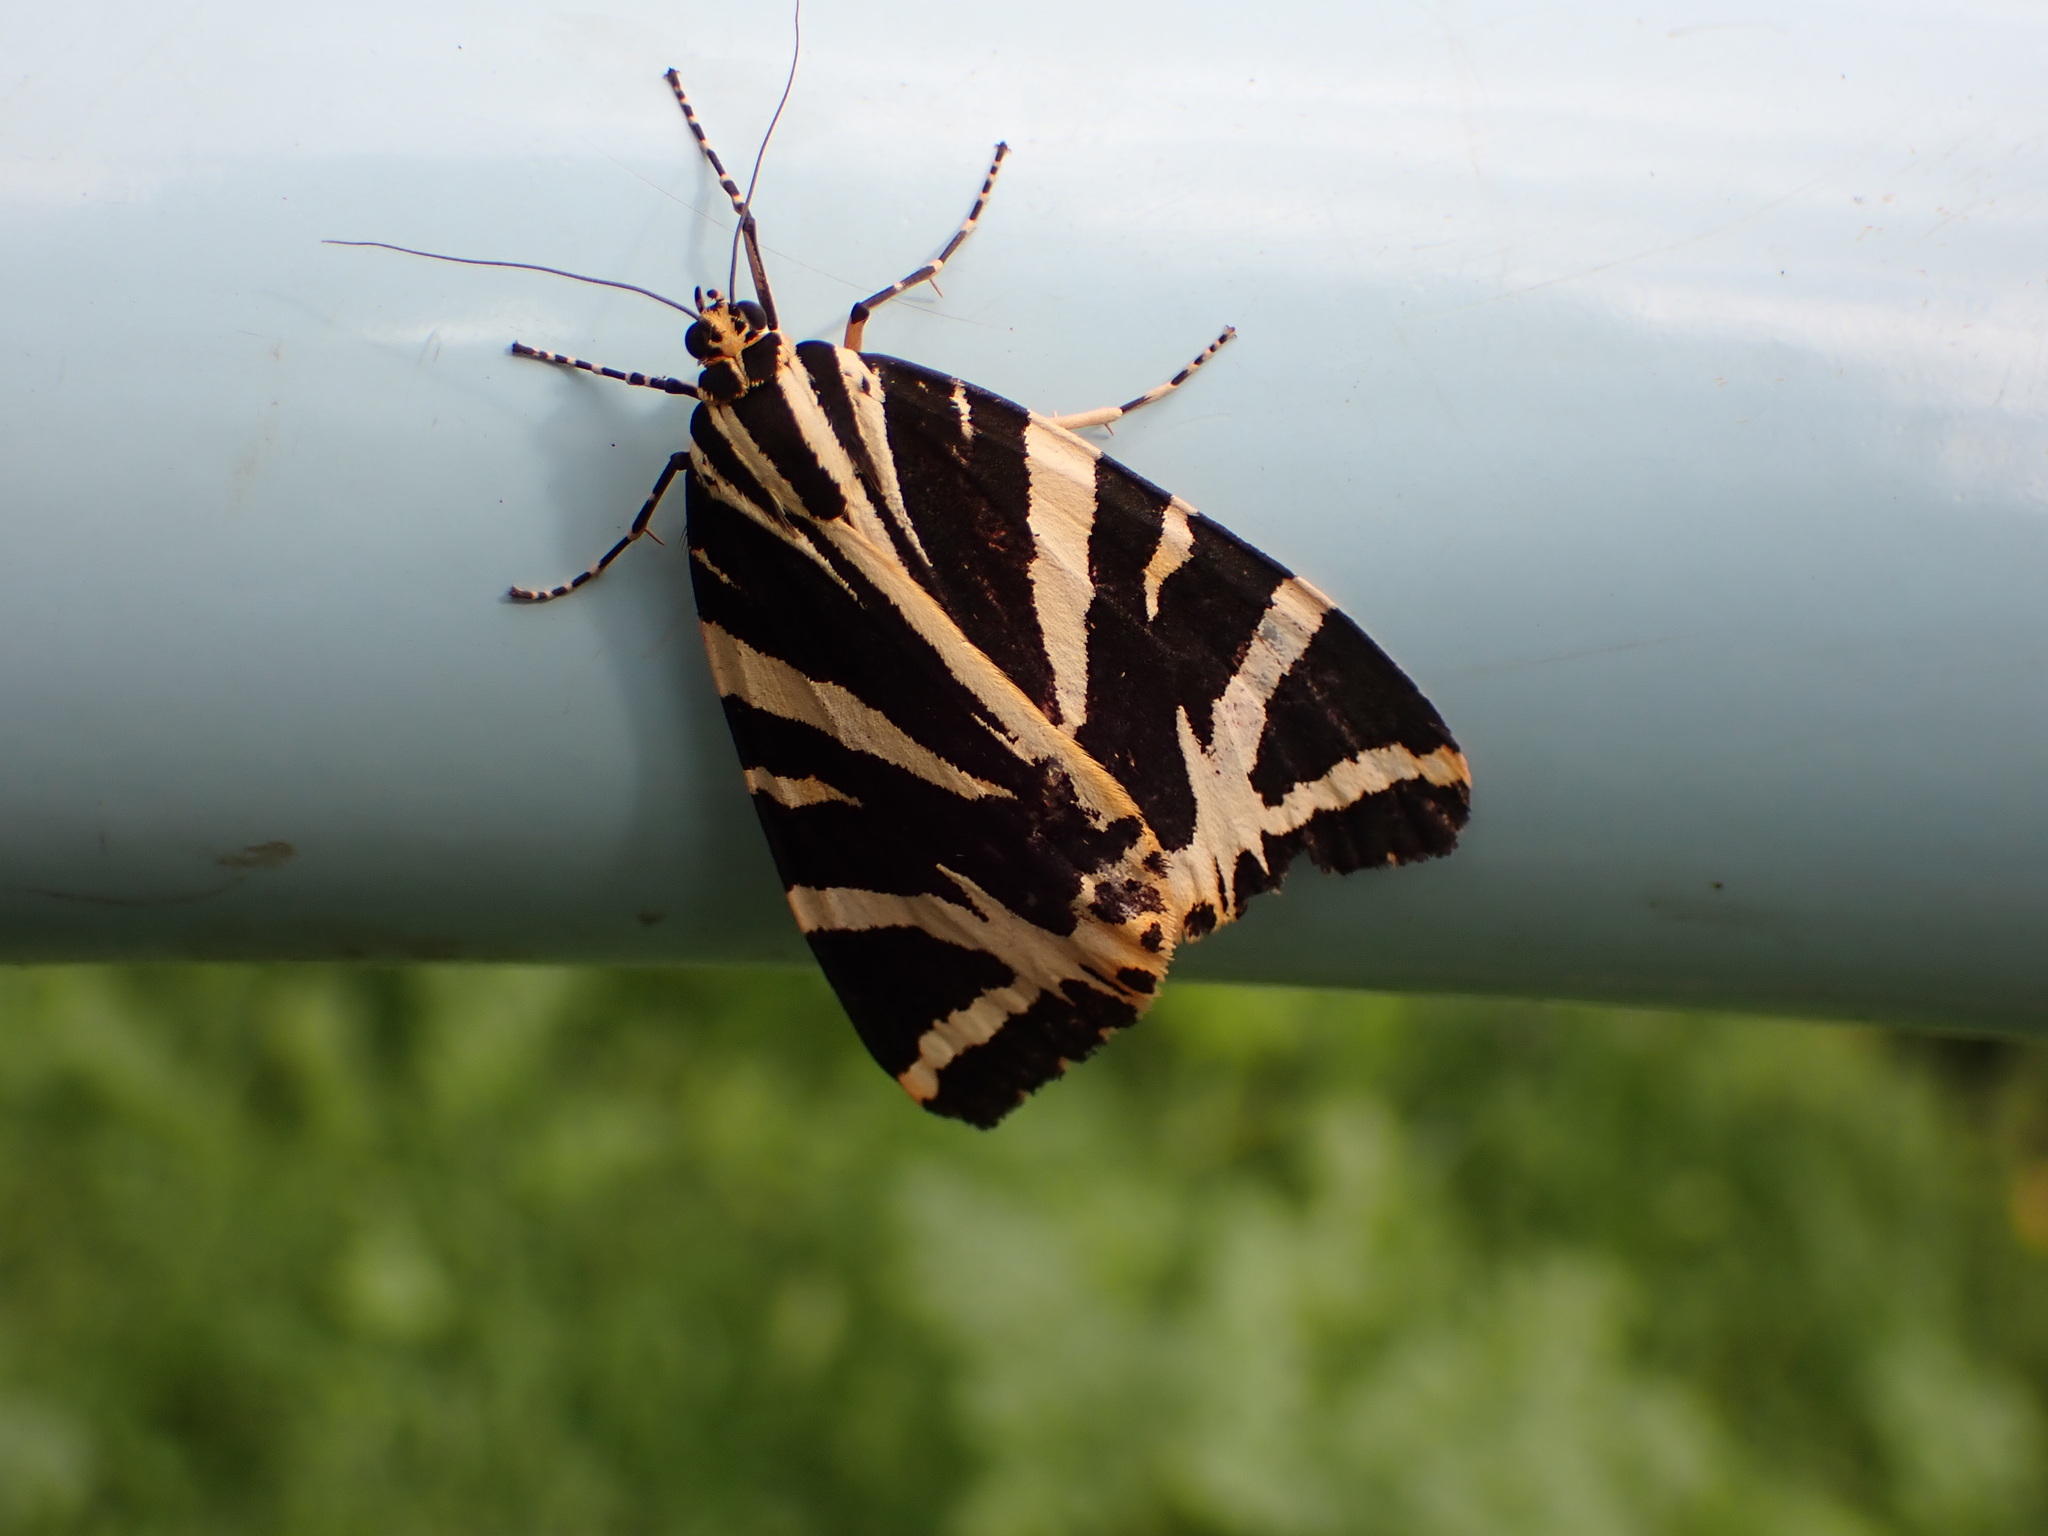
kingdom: Animalia
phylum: Arthropoda
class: Insecta
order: Lepidoptera
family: Erebidae
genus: Euplagia
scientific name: Euplagia quadripunctaria
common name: Jersey tiger
